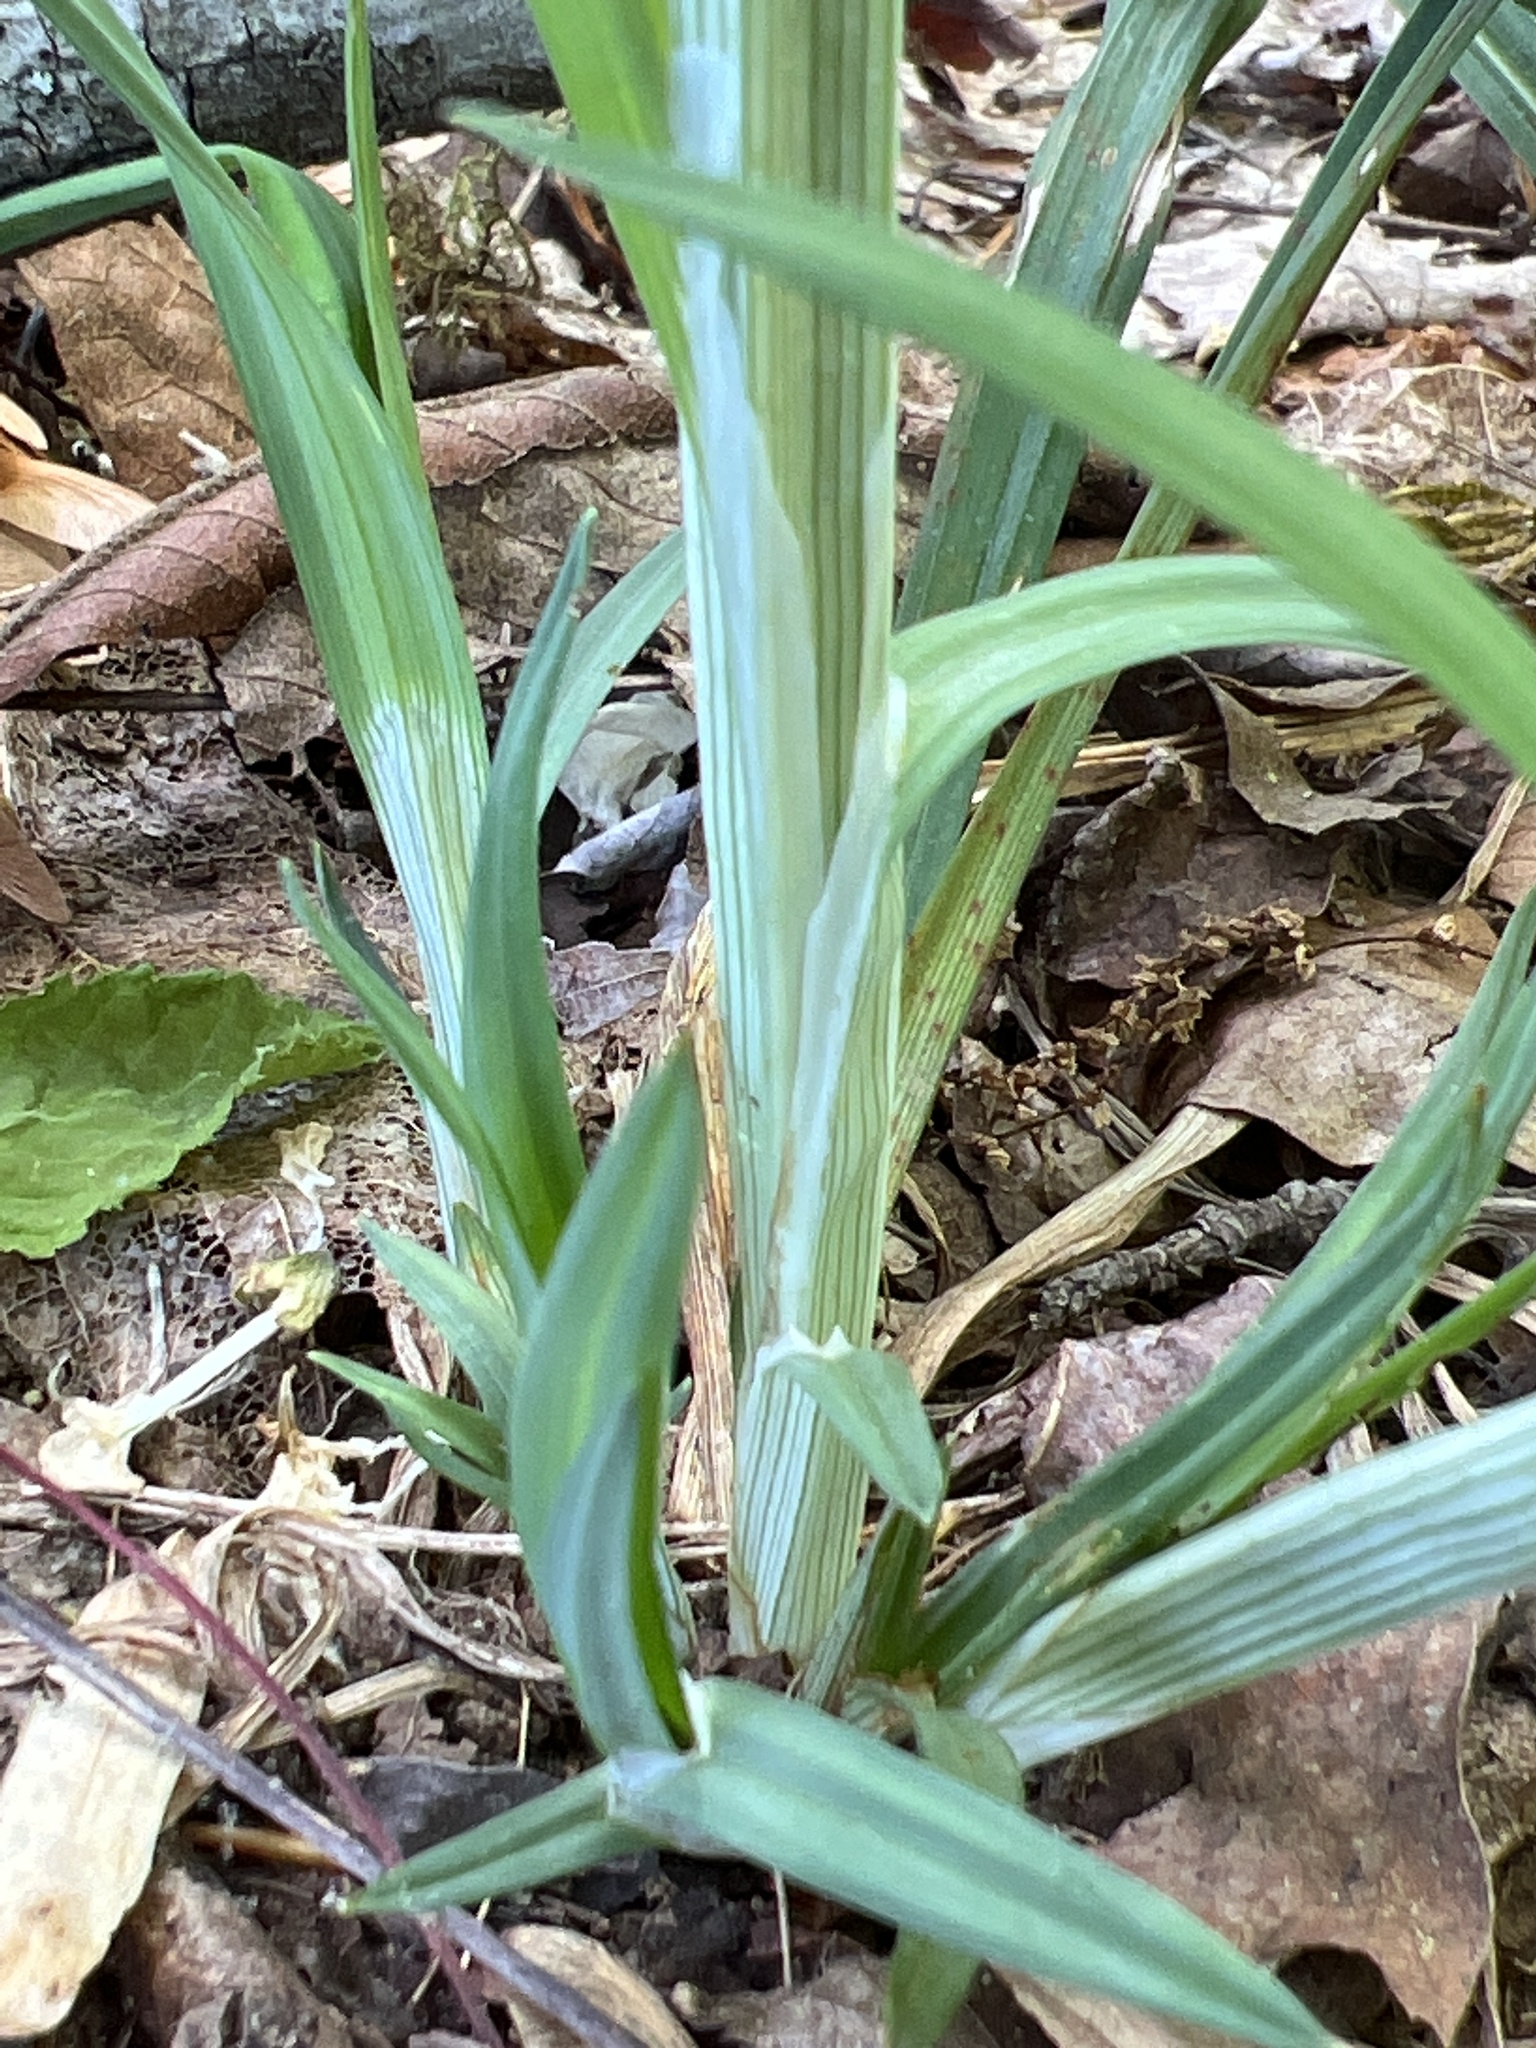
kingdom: Plantae
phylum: Tracheophyta
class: Liliopsida
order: Poales
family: Cyperaceae
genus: Carex
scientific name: Carex radfordii
